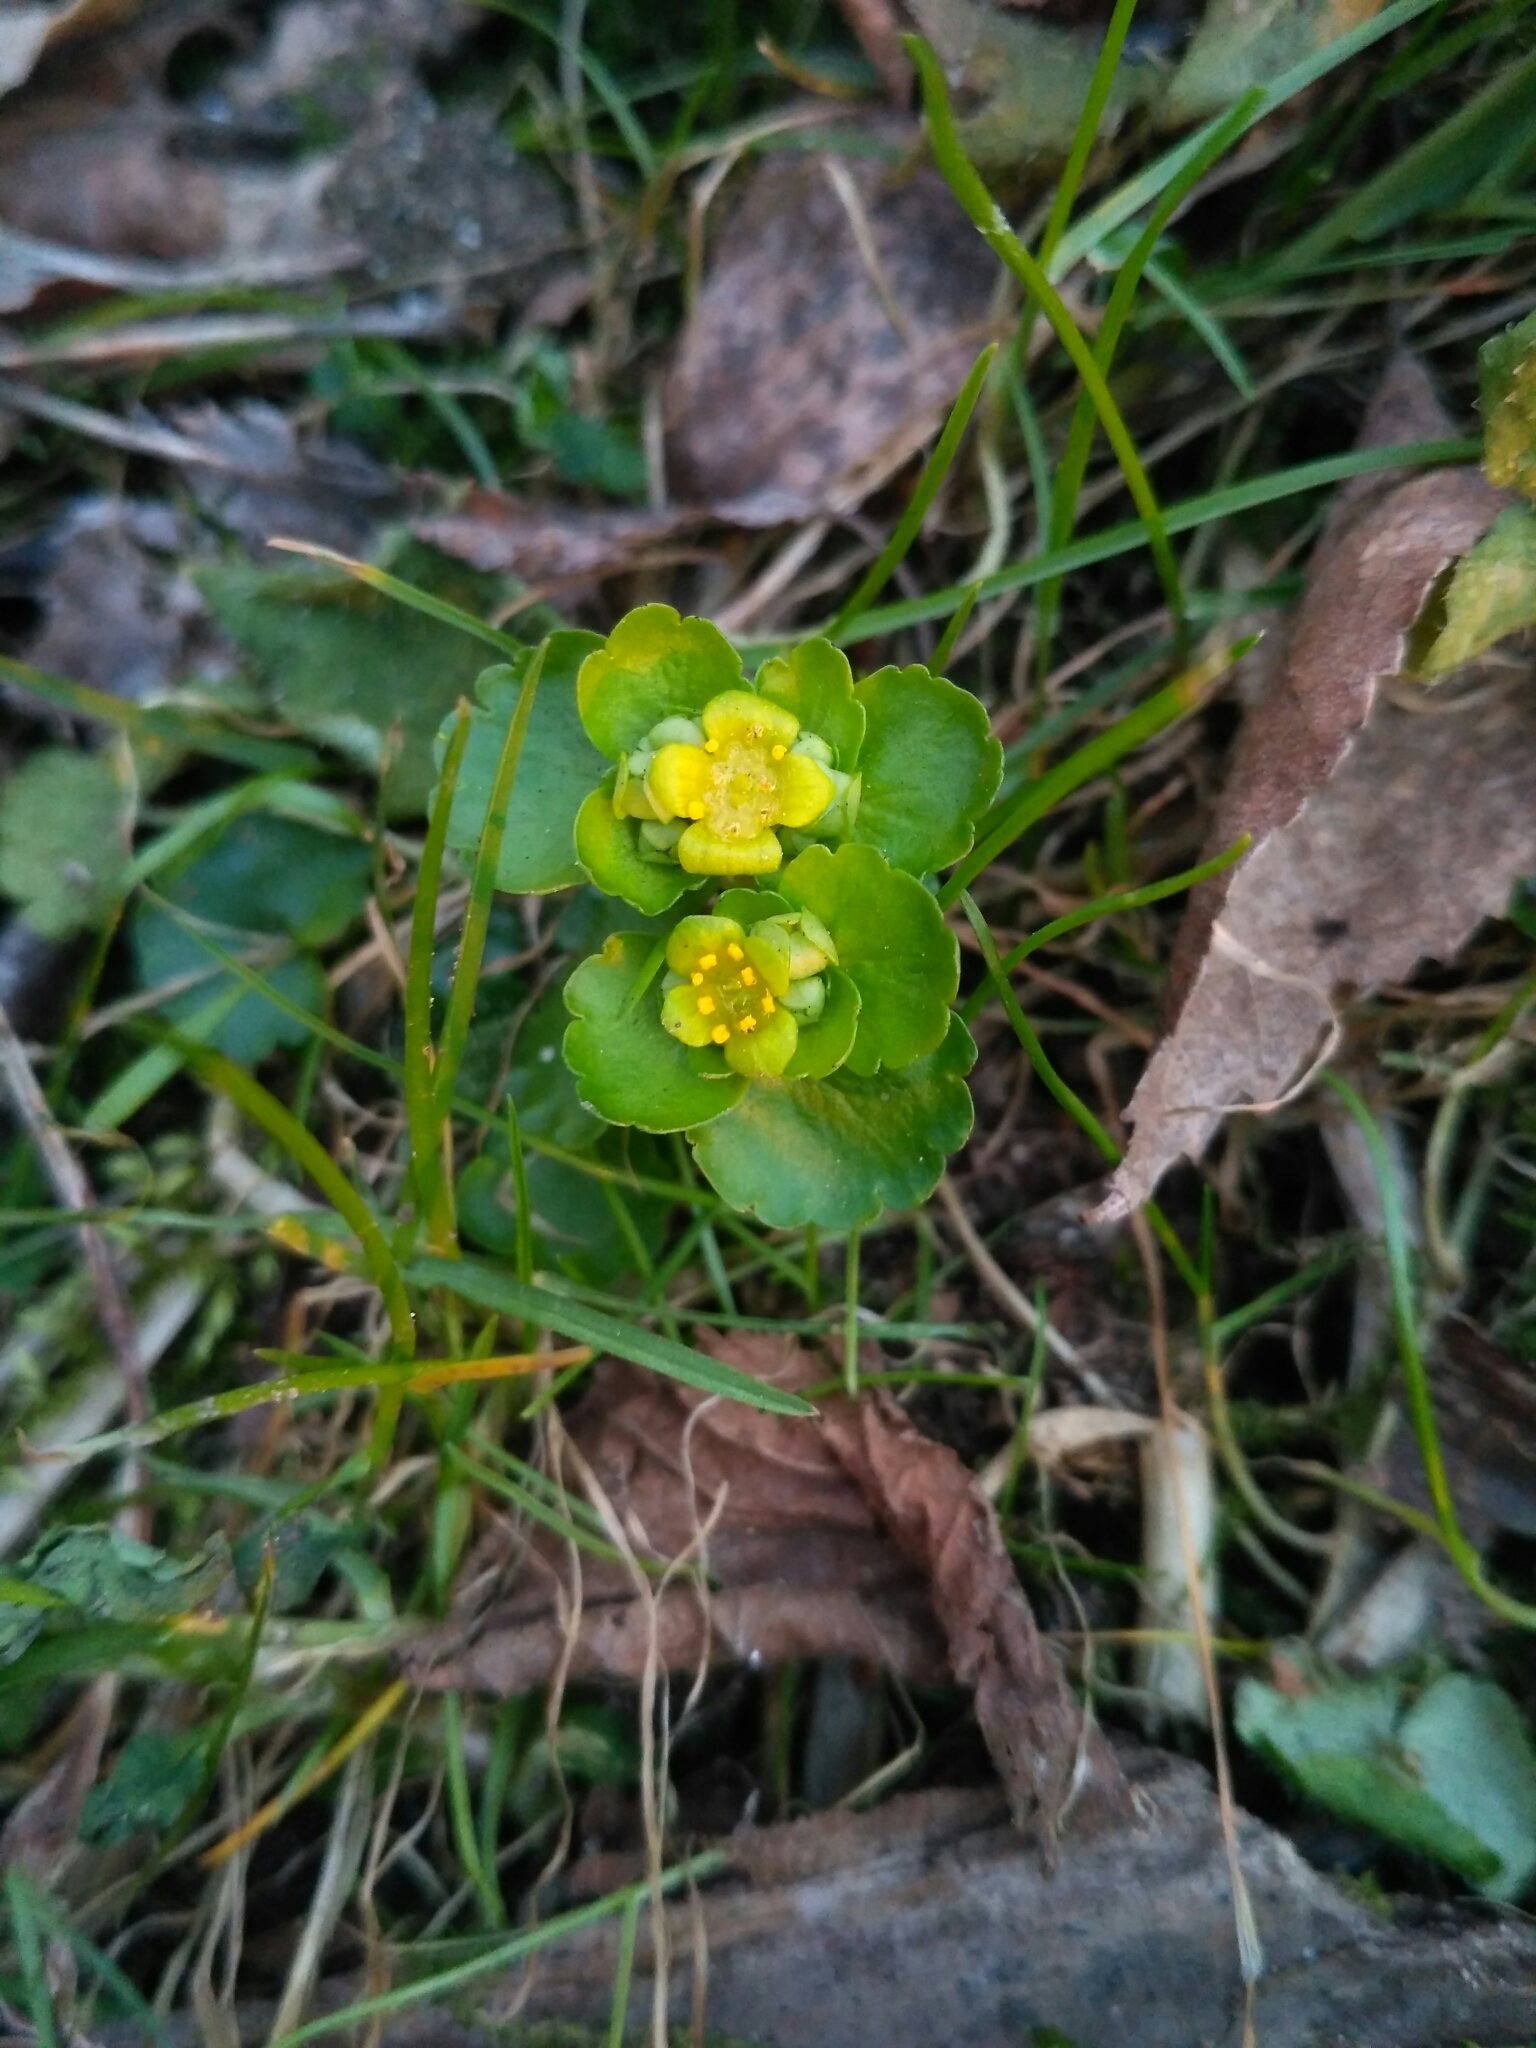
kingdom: Plantae
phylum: Tracheophyta
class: Magnoliopsida
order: Saxifragales
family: Saxifragaceae
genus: Chrysosplenium
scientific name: Chrysosplenium alternifolium
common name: Alternate-leaved golden-saxifrage
